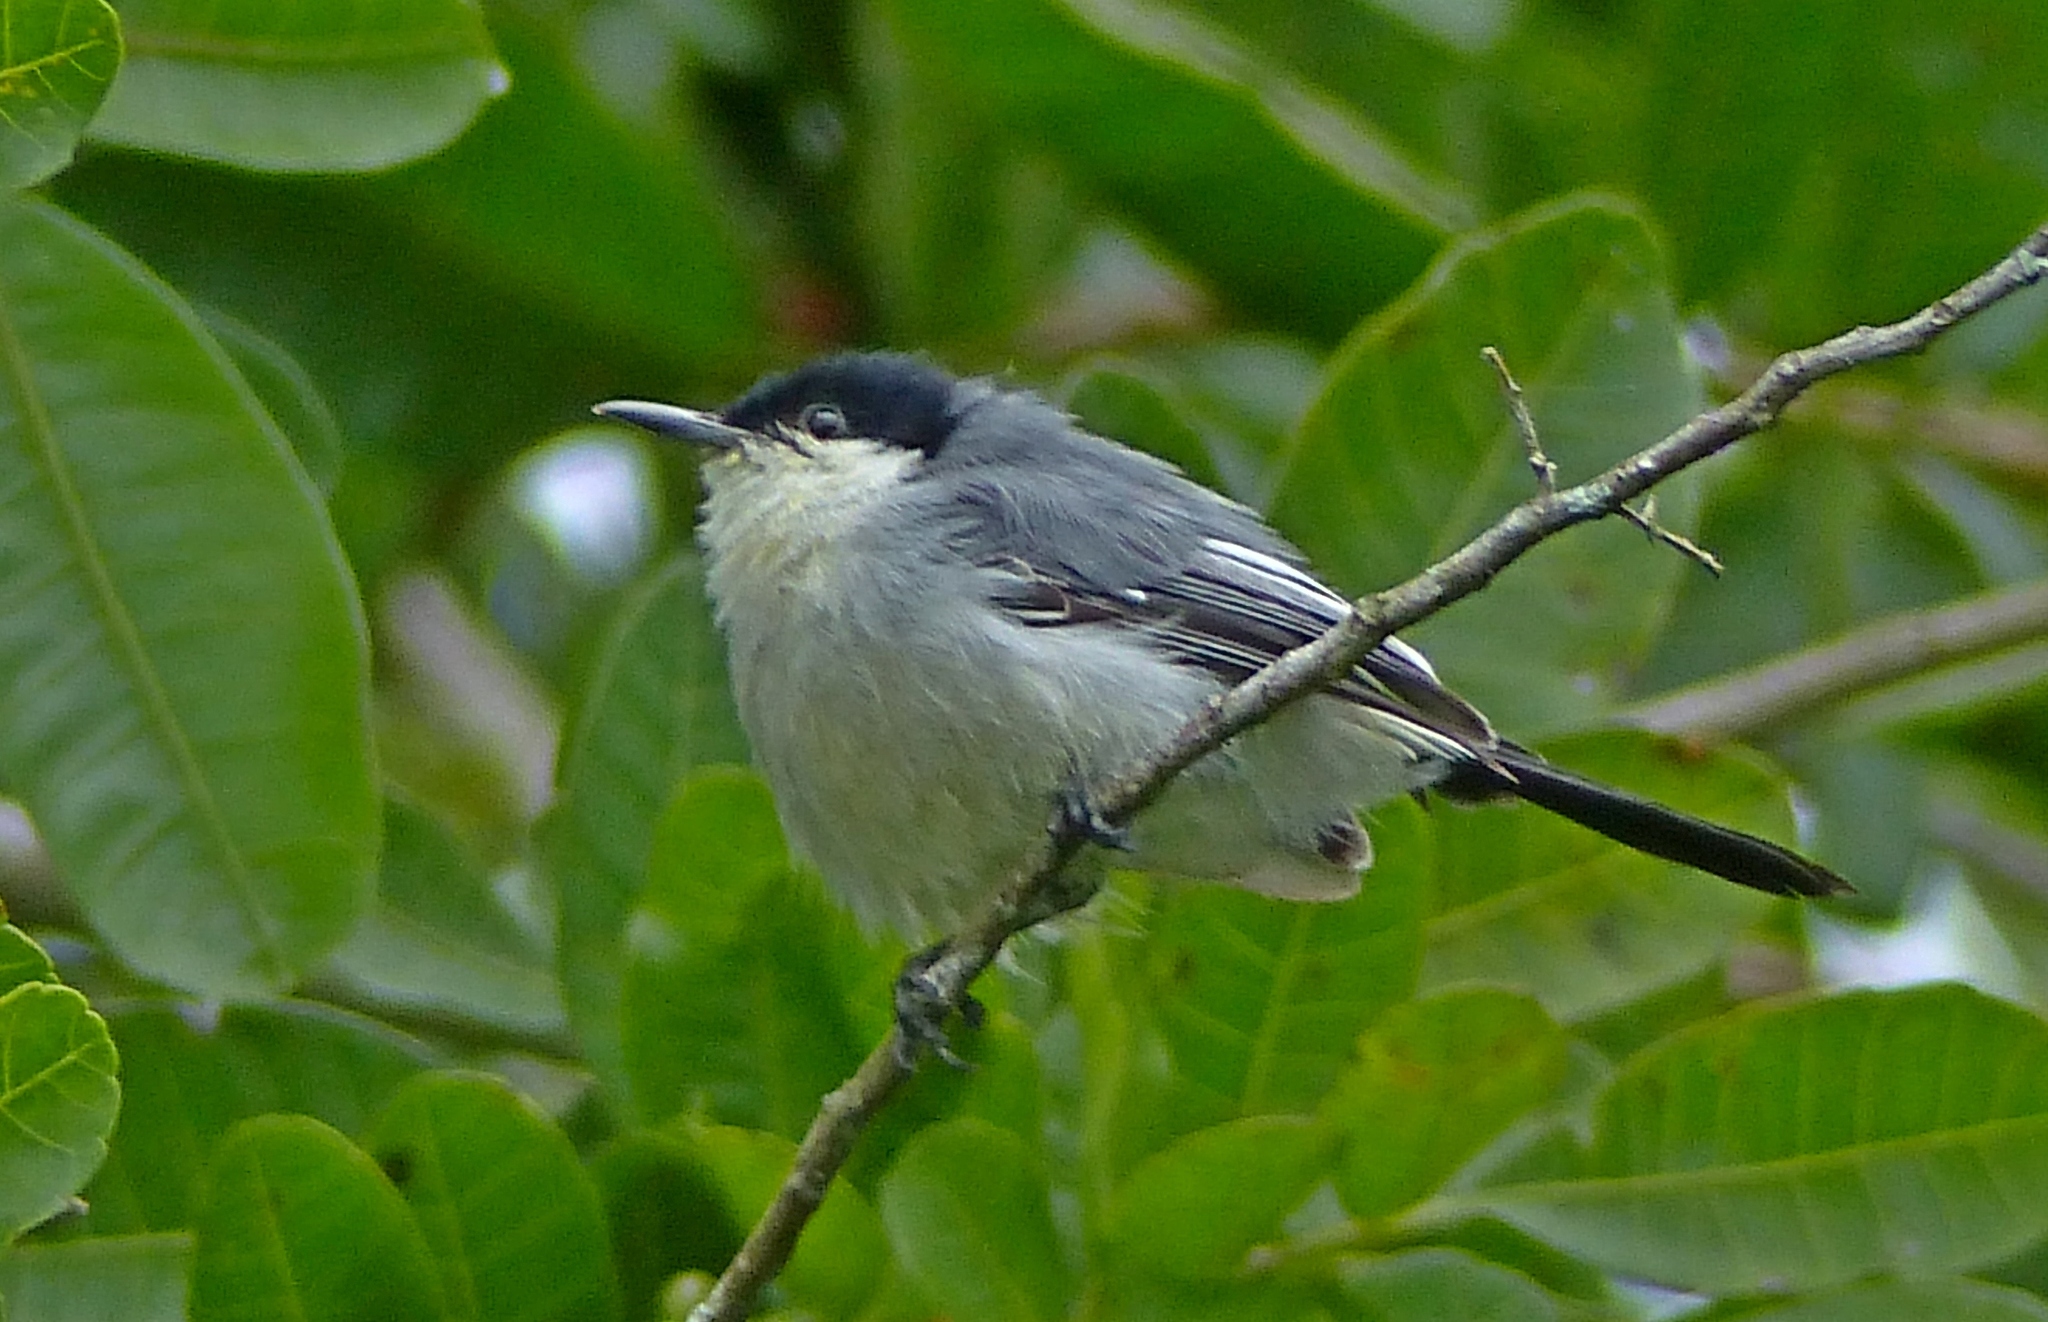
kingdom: Animalia
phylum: Chordata
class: Aves
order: Passeriformes
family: Polioptilidae
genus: Polioptila
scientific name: Polioptila plumbea
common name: Tropical gnatcatcher
